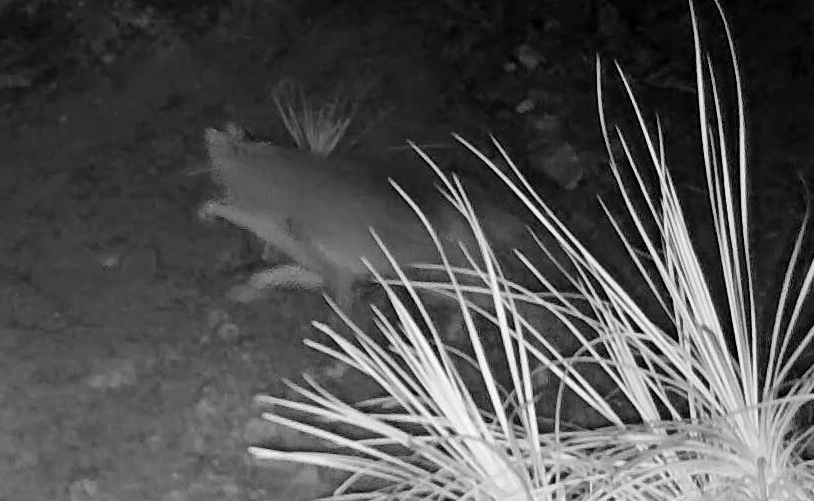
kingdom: Animalia
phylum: Chordata
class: Mammalia
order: Carnivora
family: Canidae
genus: Canis
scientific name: Canis latrans
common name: Coyote
